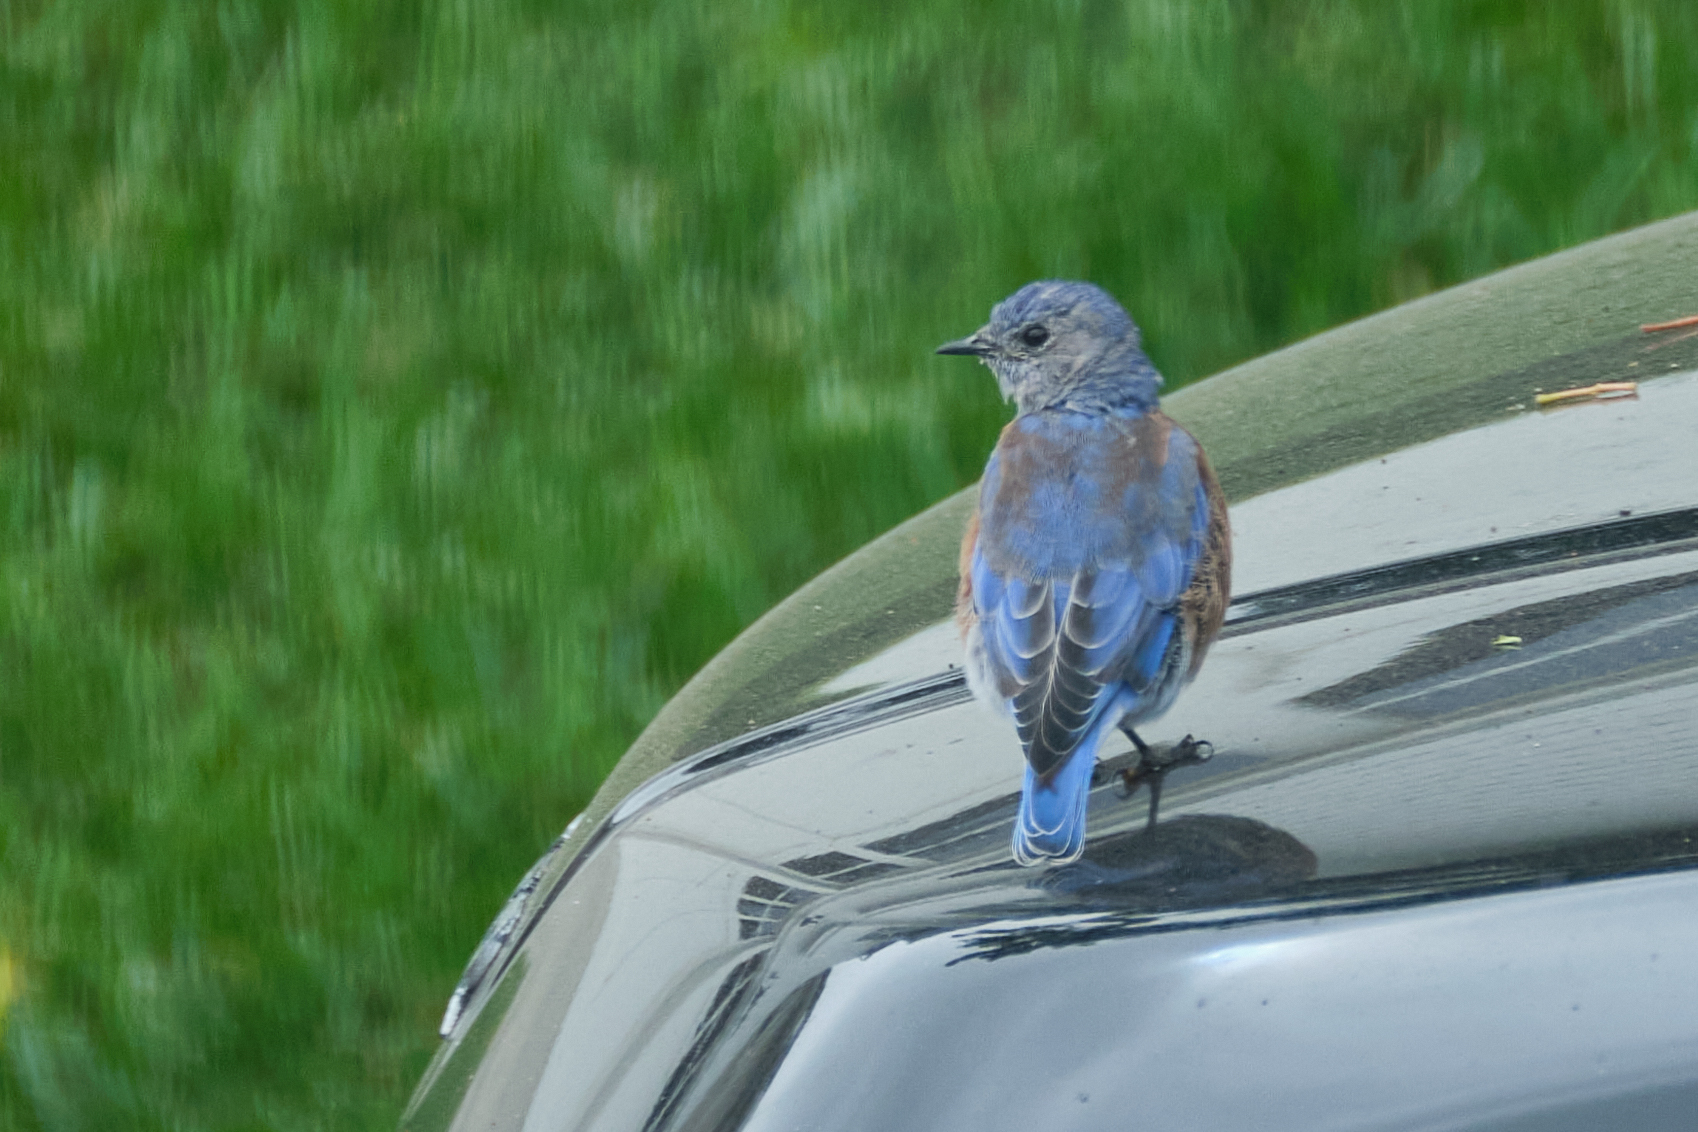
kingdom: Animalia
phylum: Chordata
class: Aves
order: Passeriformes
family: Turdidae
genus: Sialia
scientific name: Sialia mexicana
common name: Western bluebird
